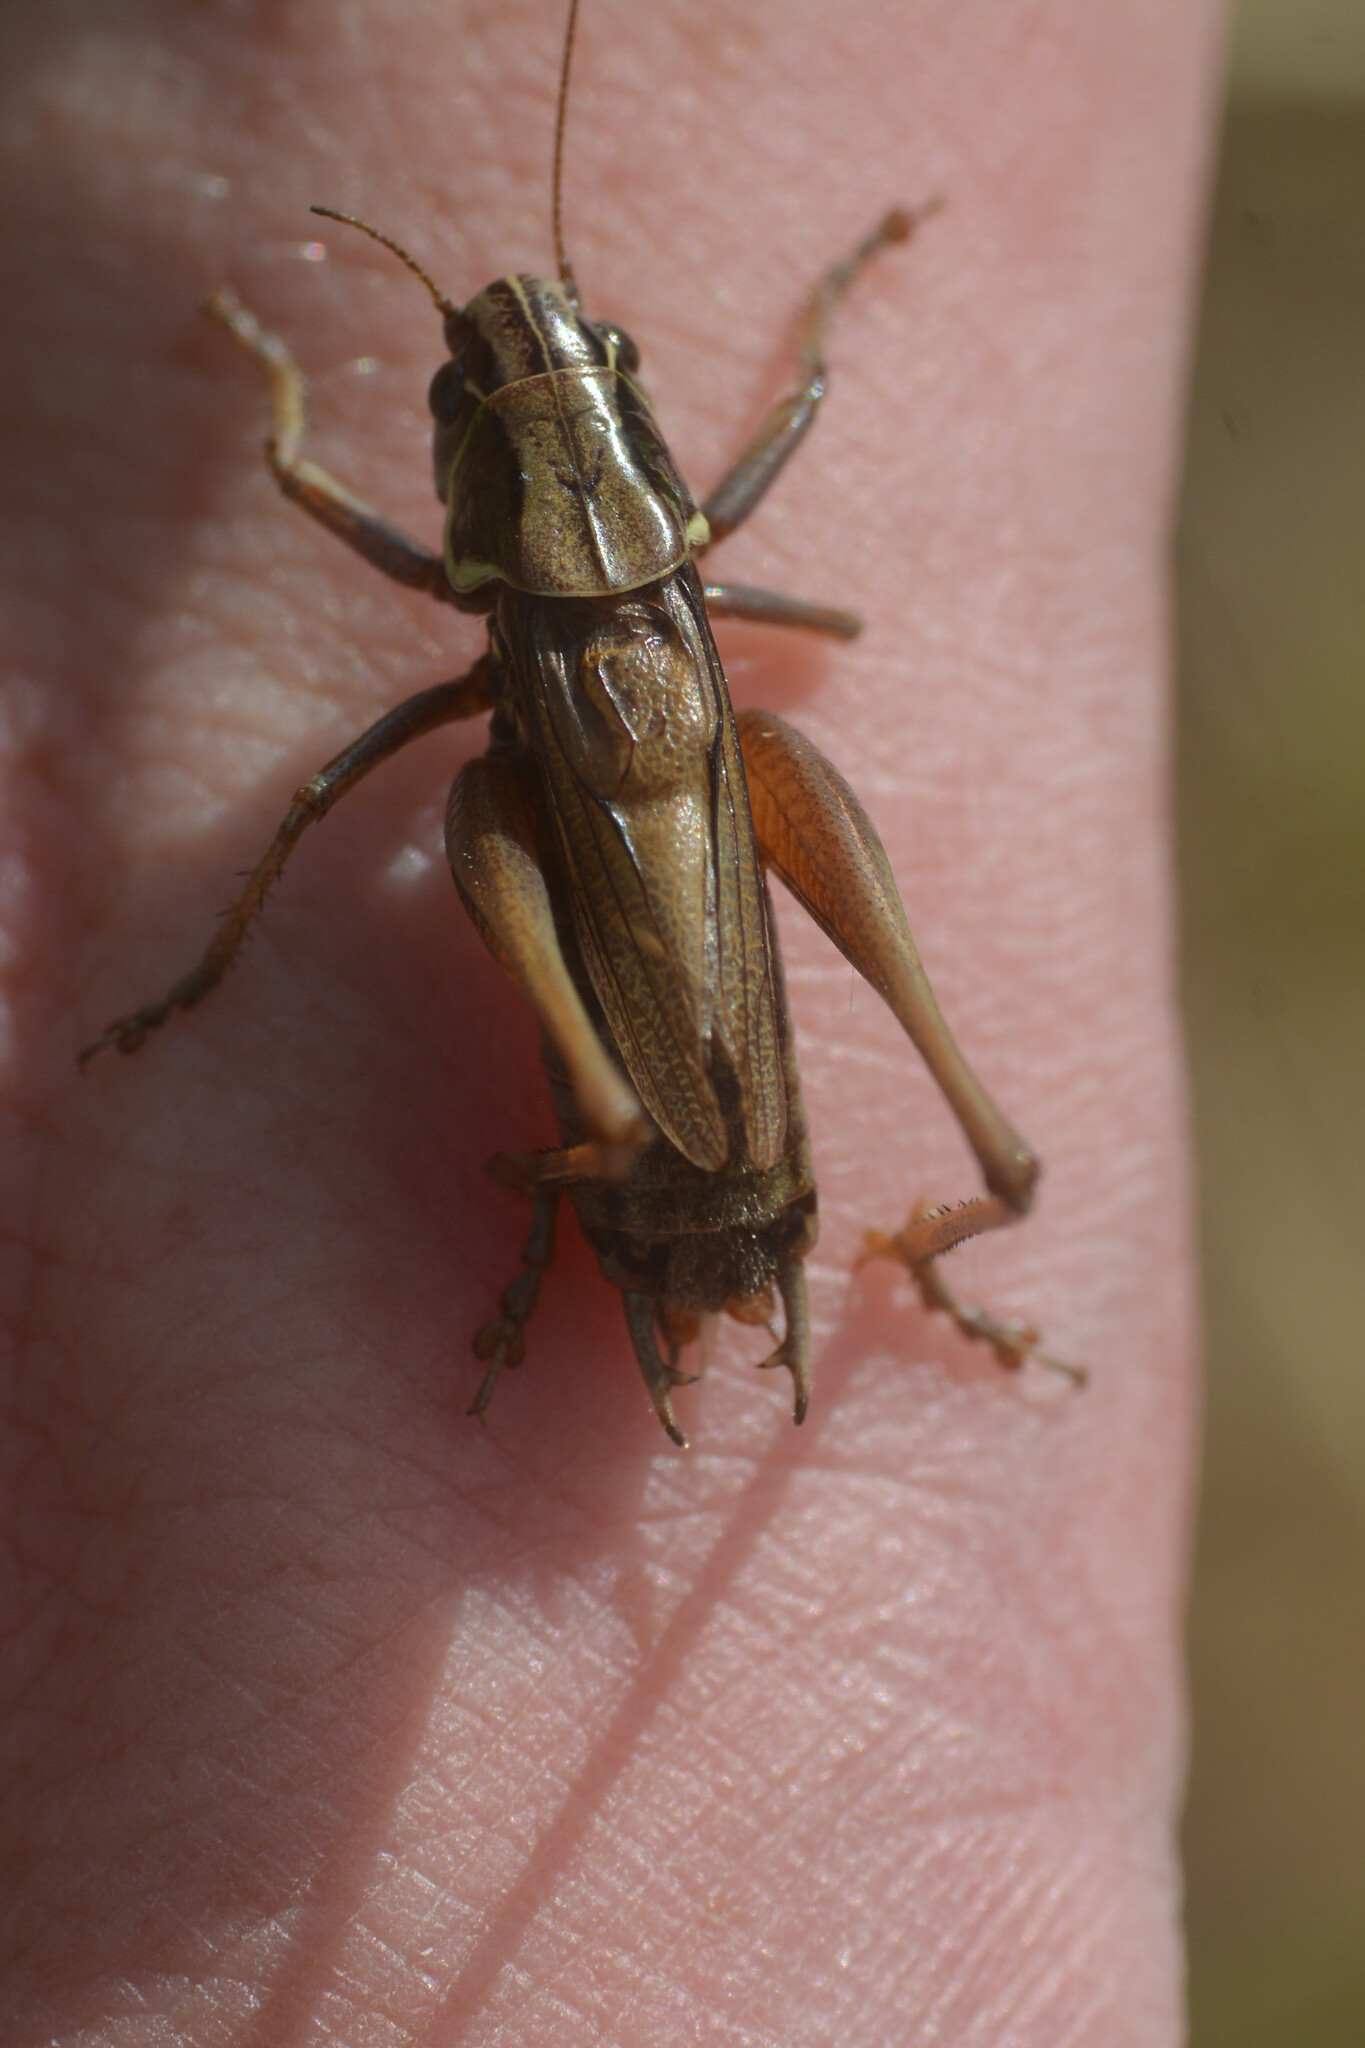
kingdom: Animalia
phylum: Arthropoda
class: Insecta
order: Orthoptera
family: Tettigoniidae
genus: Roeseliana
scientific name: Roeseliana roeselii
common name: Roesel's bush cricket
